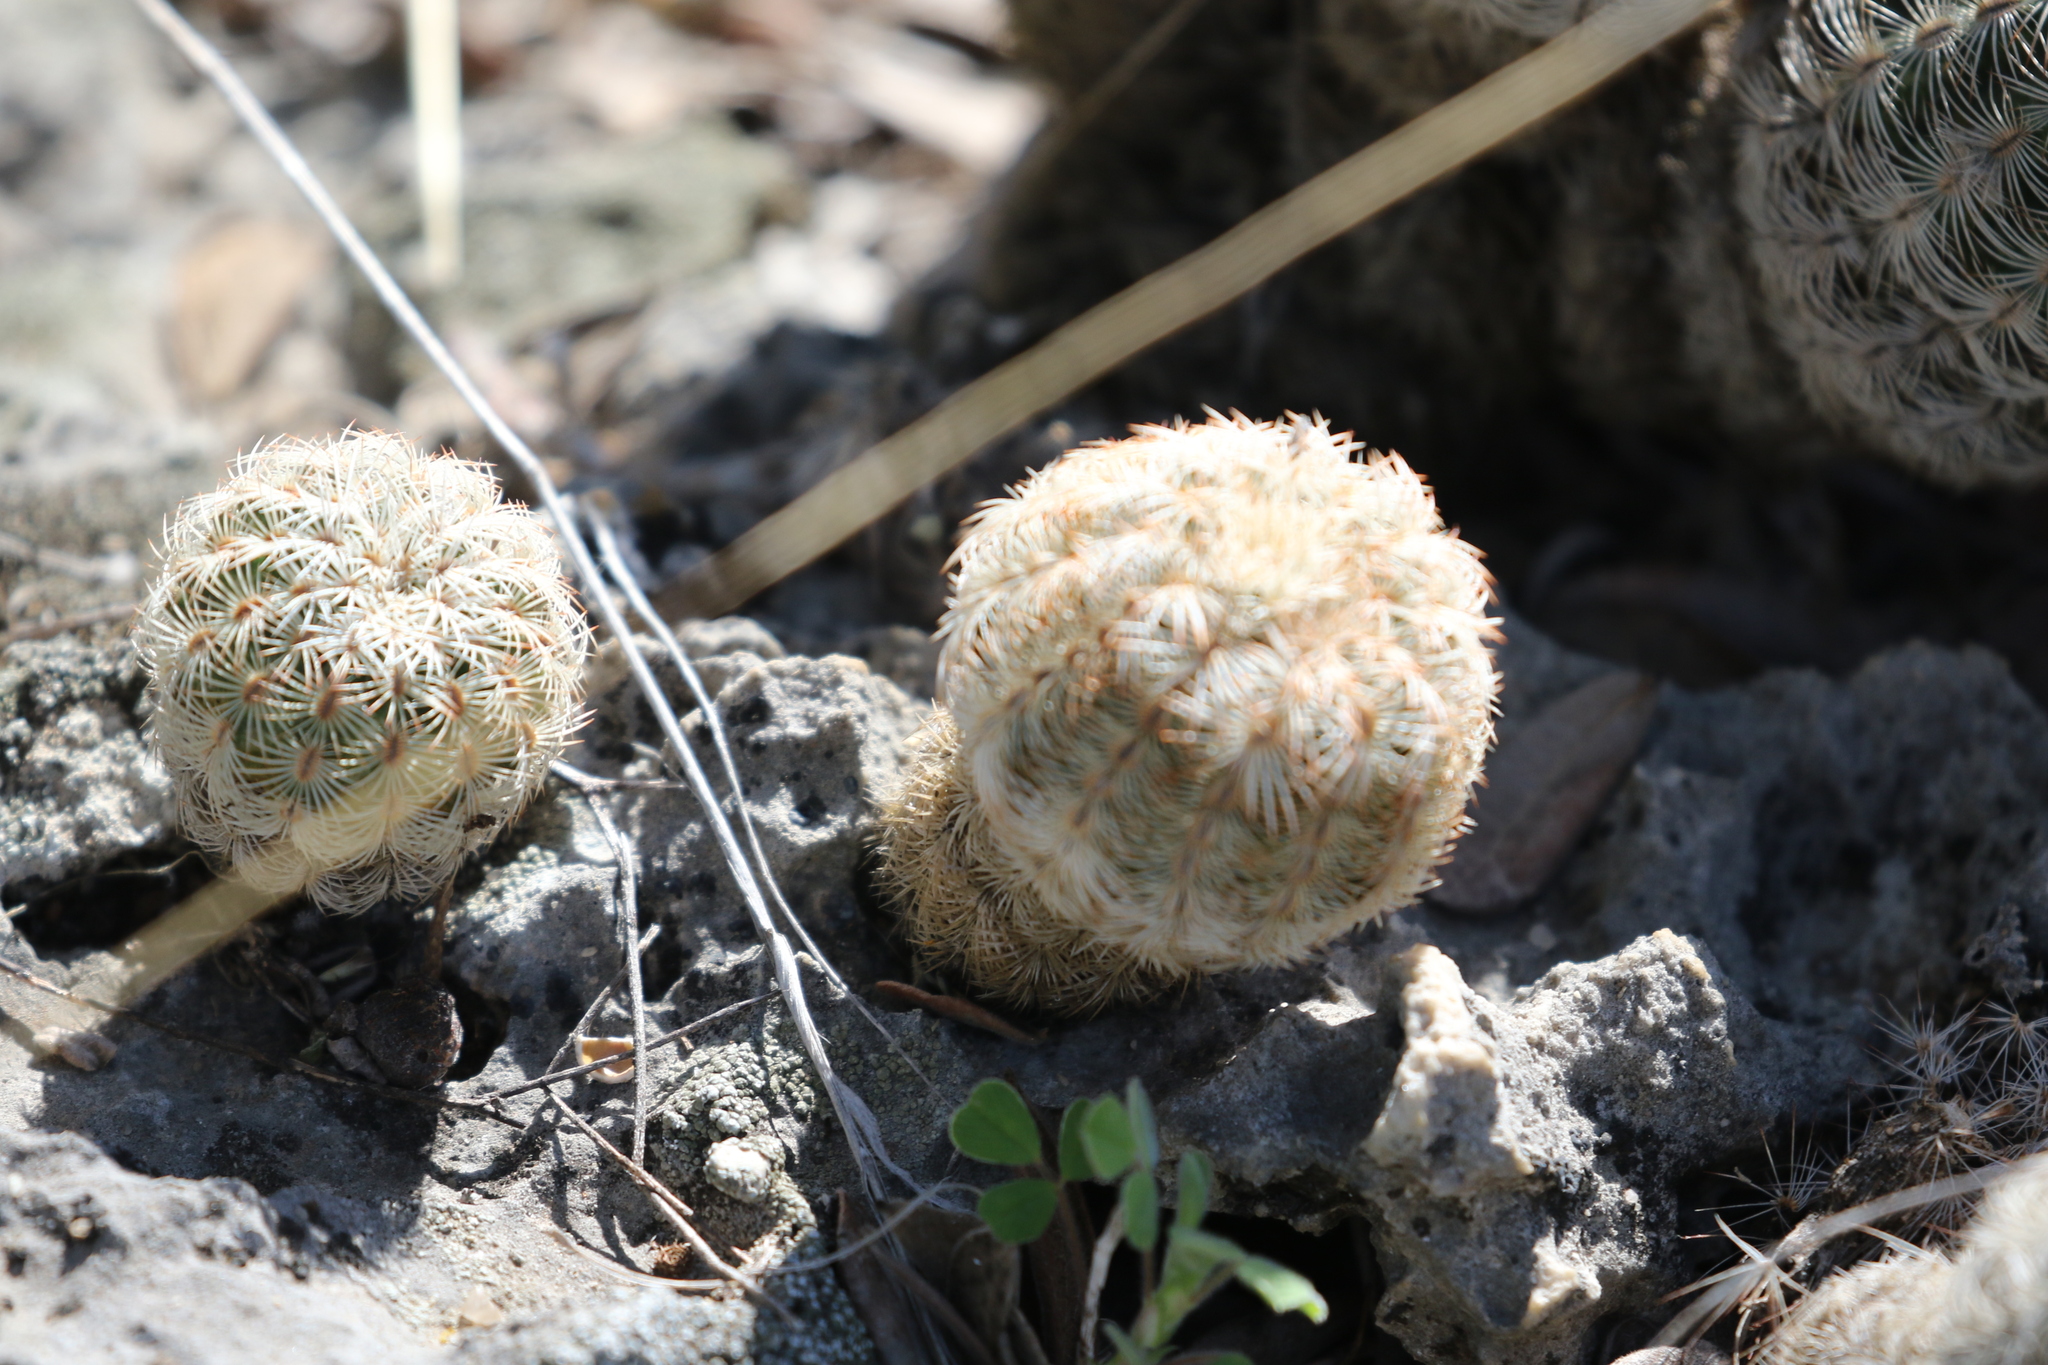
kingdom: Plantae
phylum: Tracheophyta
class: Magnoliopsida
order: Caryophyllales
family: Cactaceae
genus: Echinocereus
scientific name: Echinocereus reichenbachii
